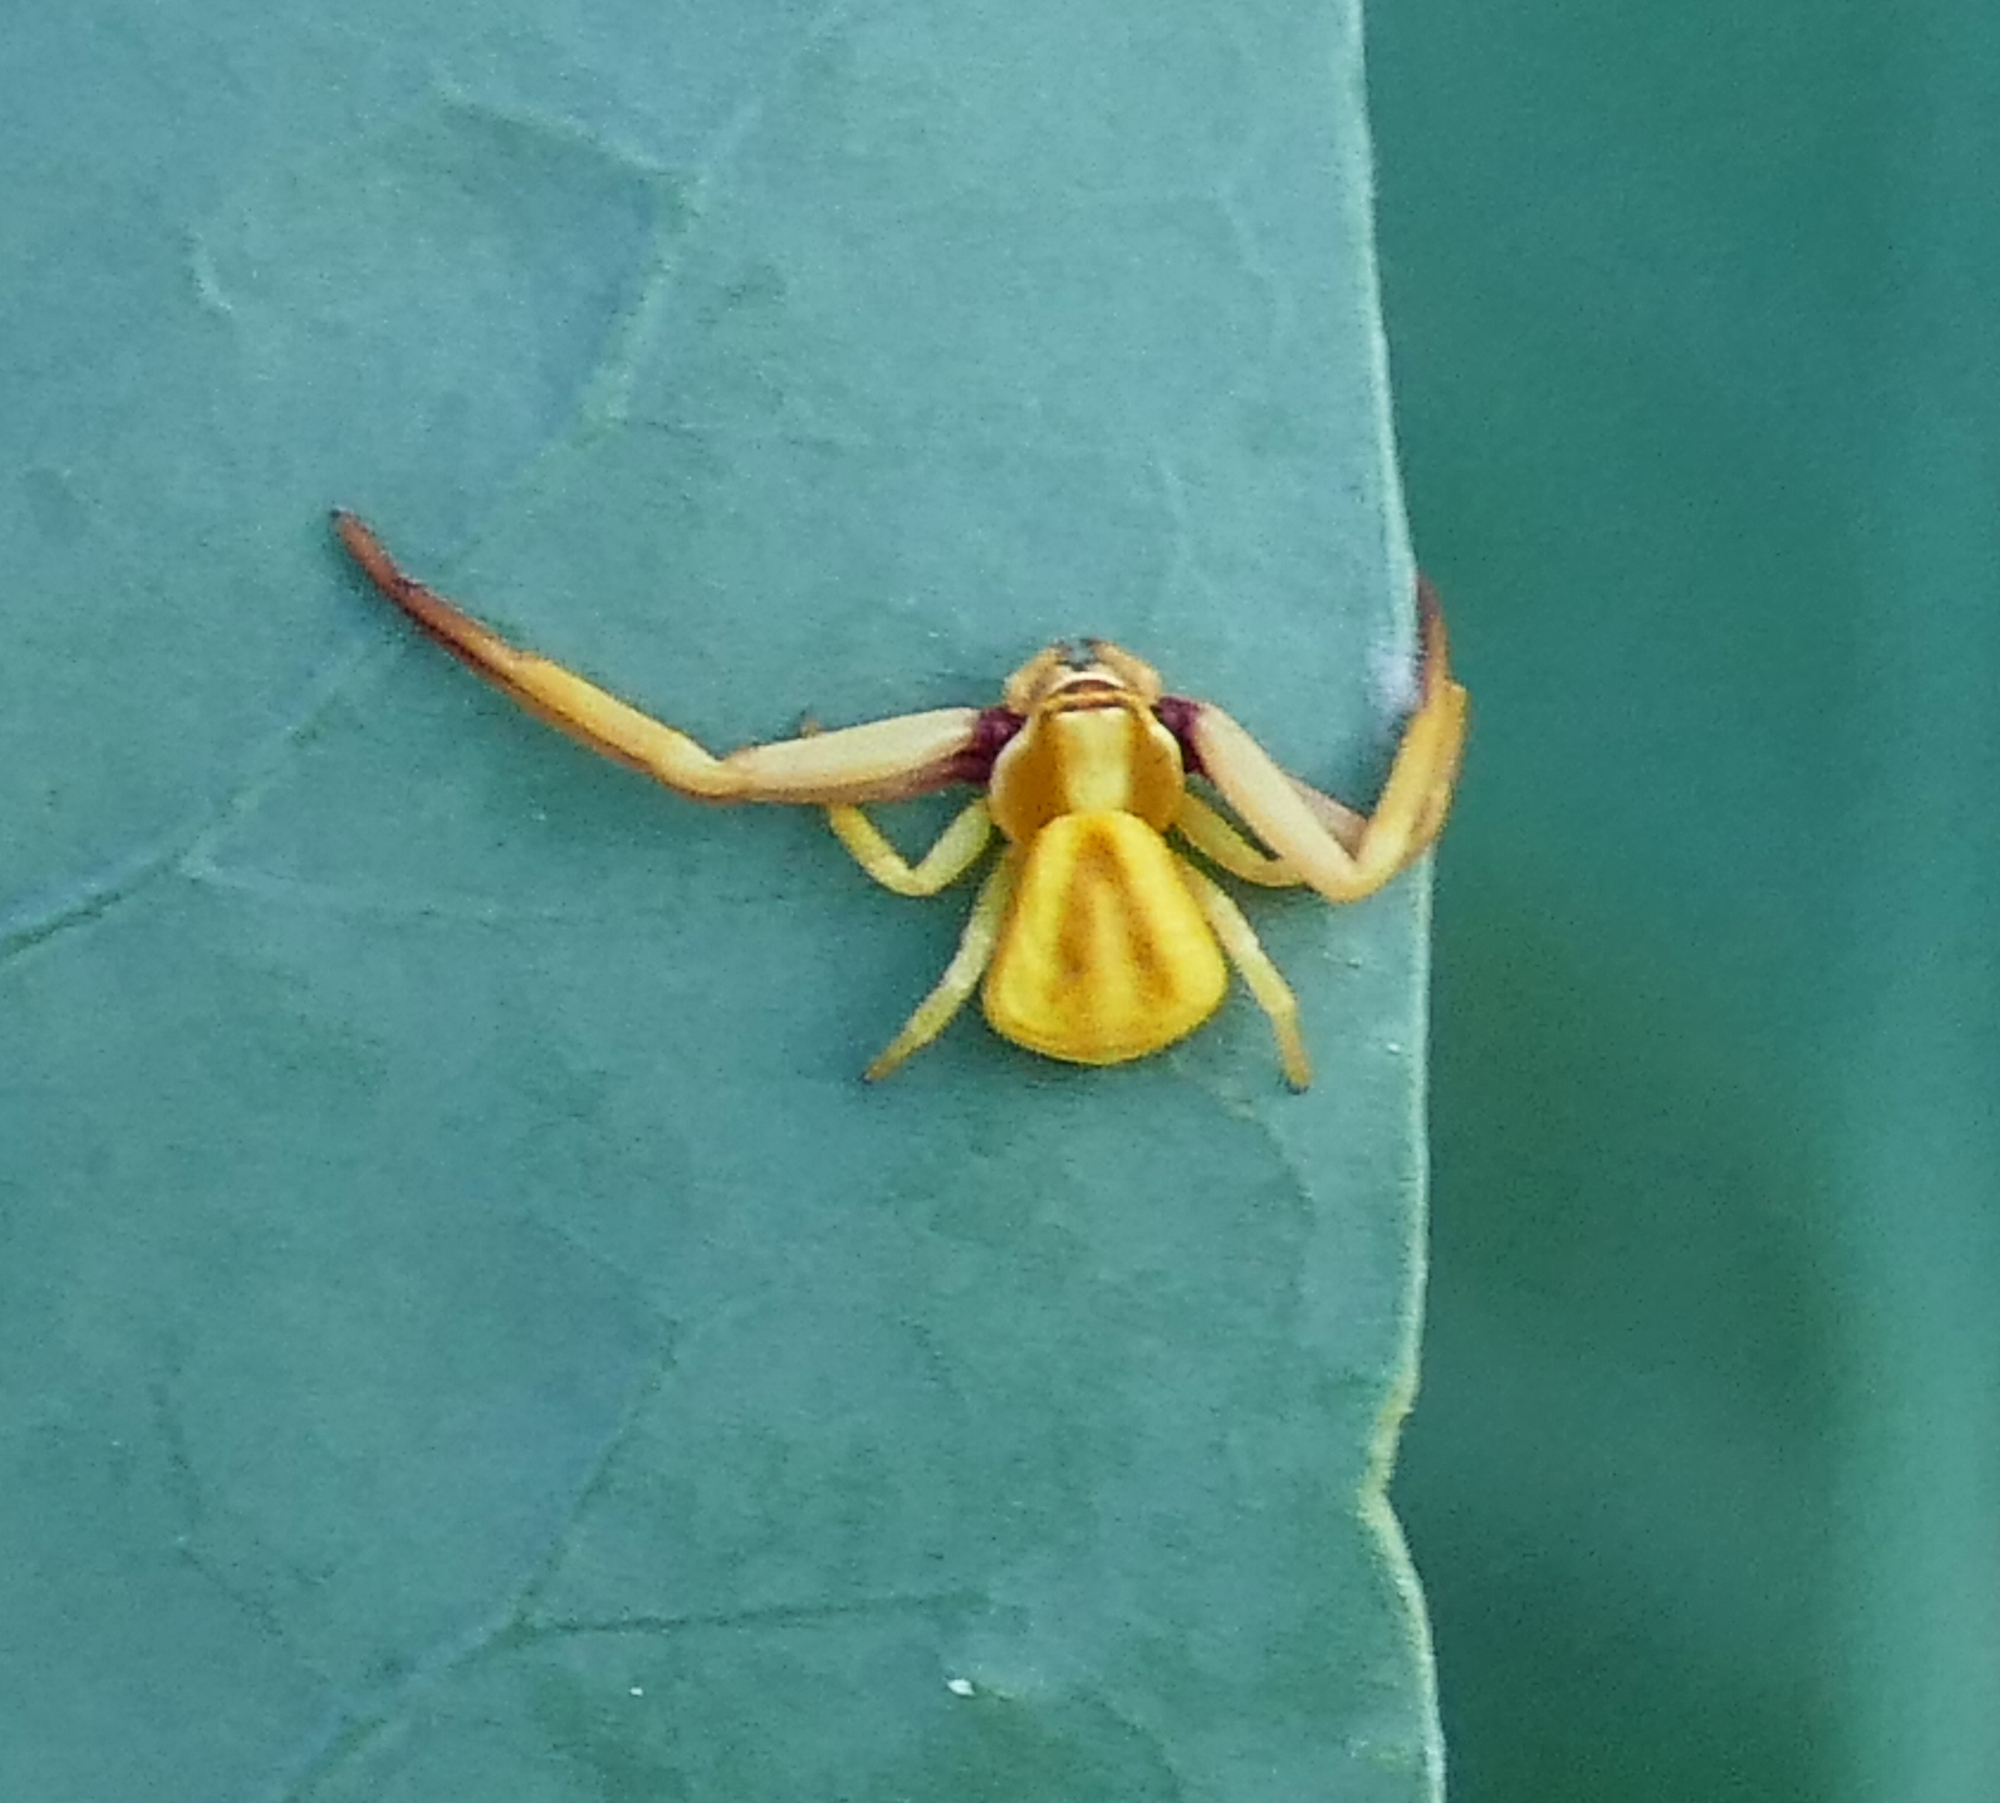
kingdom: Animalia
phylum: Arthropoda
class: Arachnida
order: Araneae
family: Thomisidae
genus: Misumenoides
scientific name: Misumenoides formosipes
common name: White-banded crab spider
